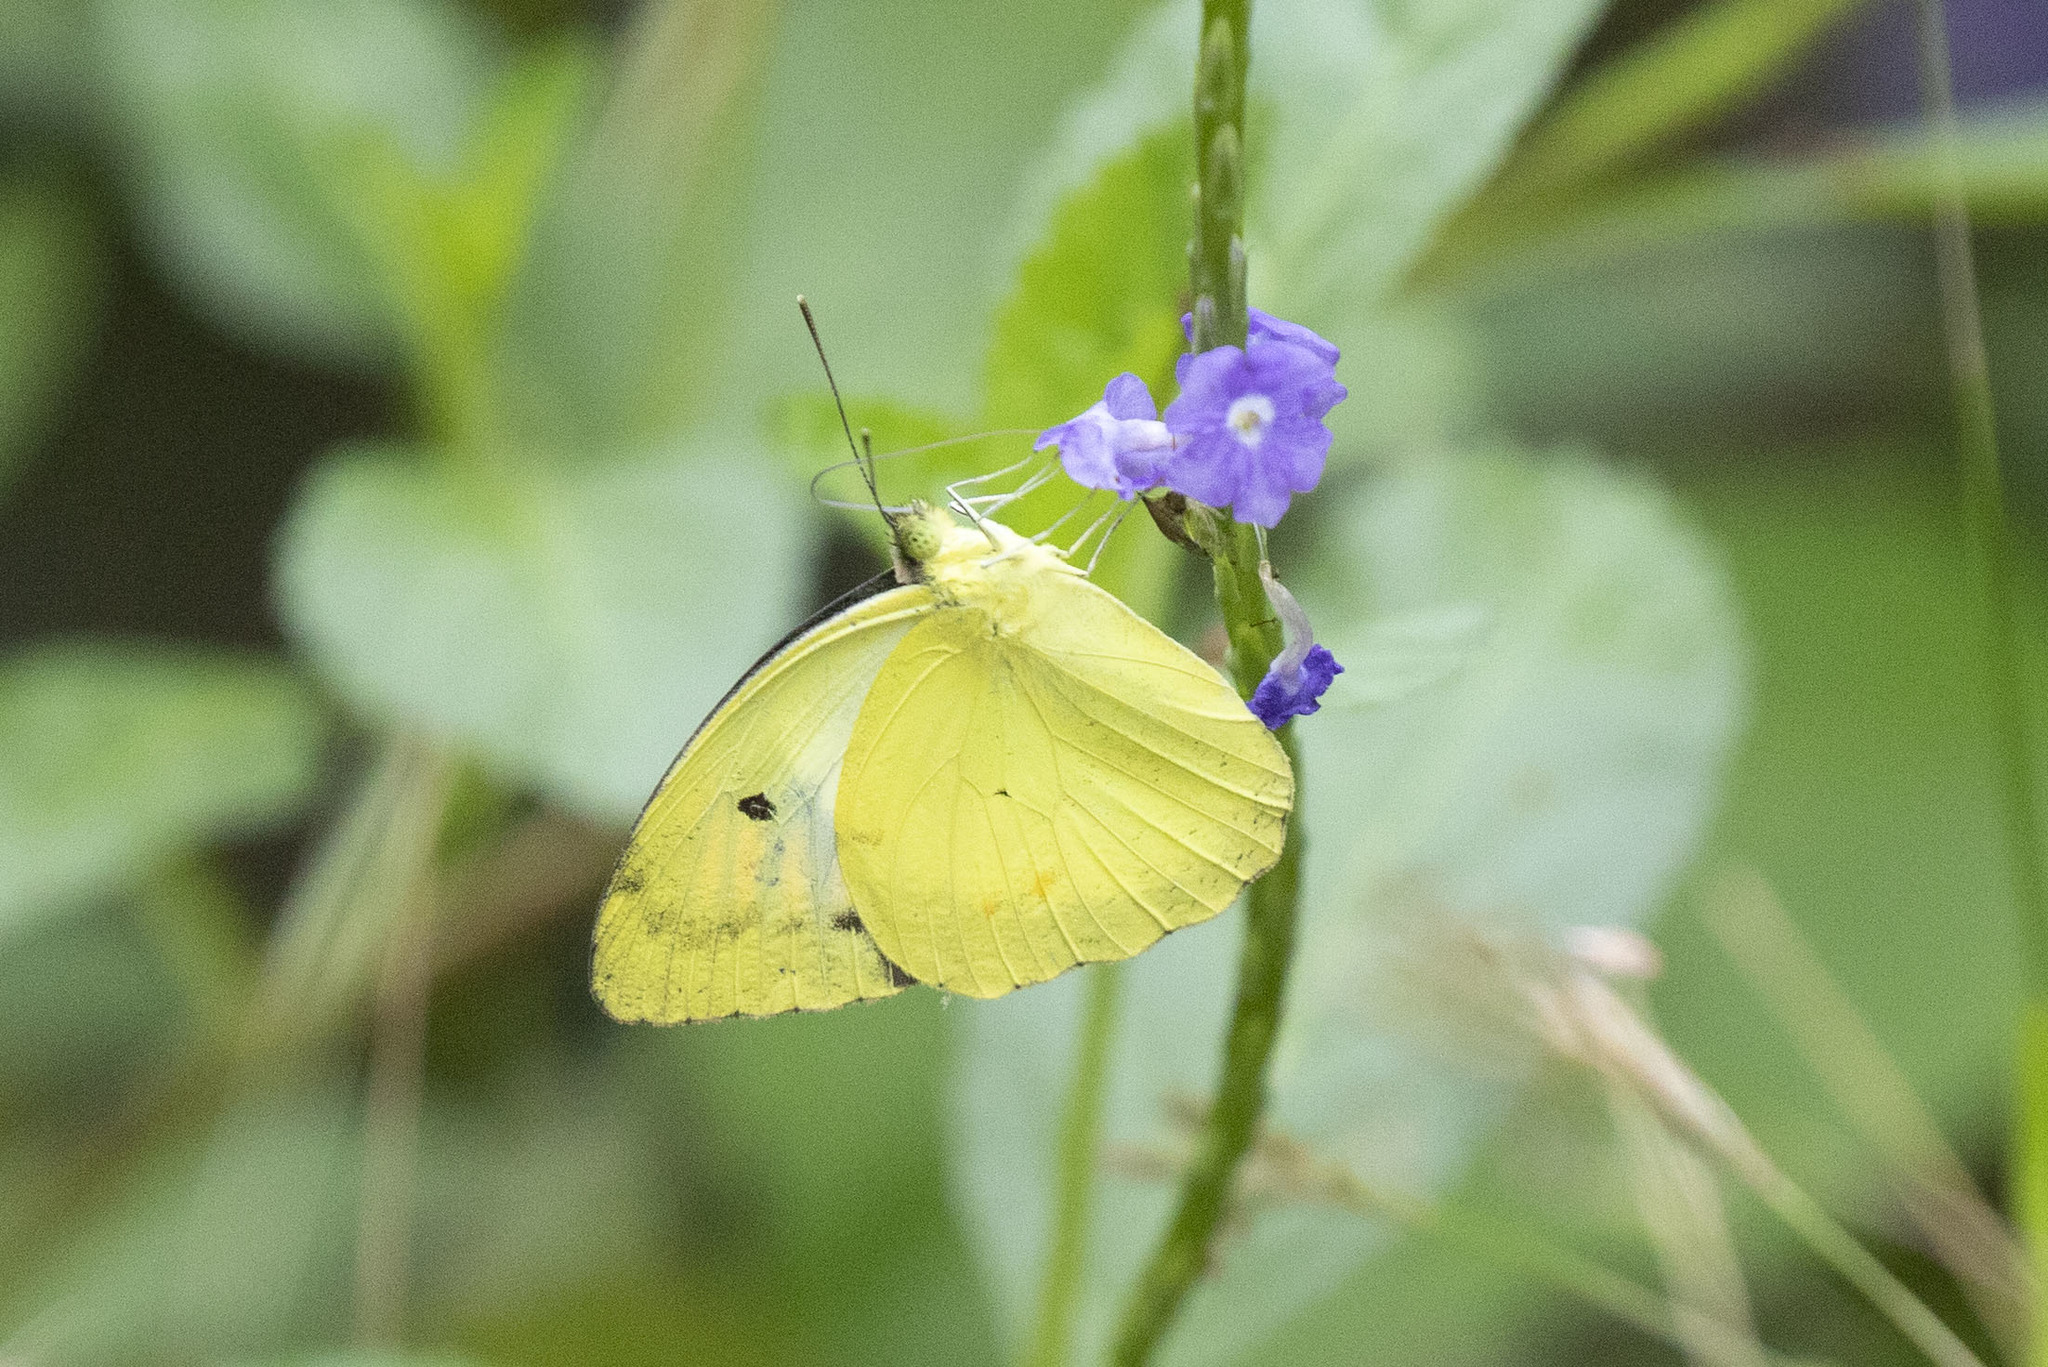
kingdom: Animalia
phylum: Arthropoda
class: Insecta
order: Lepidoptera
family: Pieridae
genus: Ixias
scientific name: Ixias pyrene
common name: Yellow orange tip
